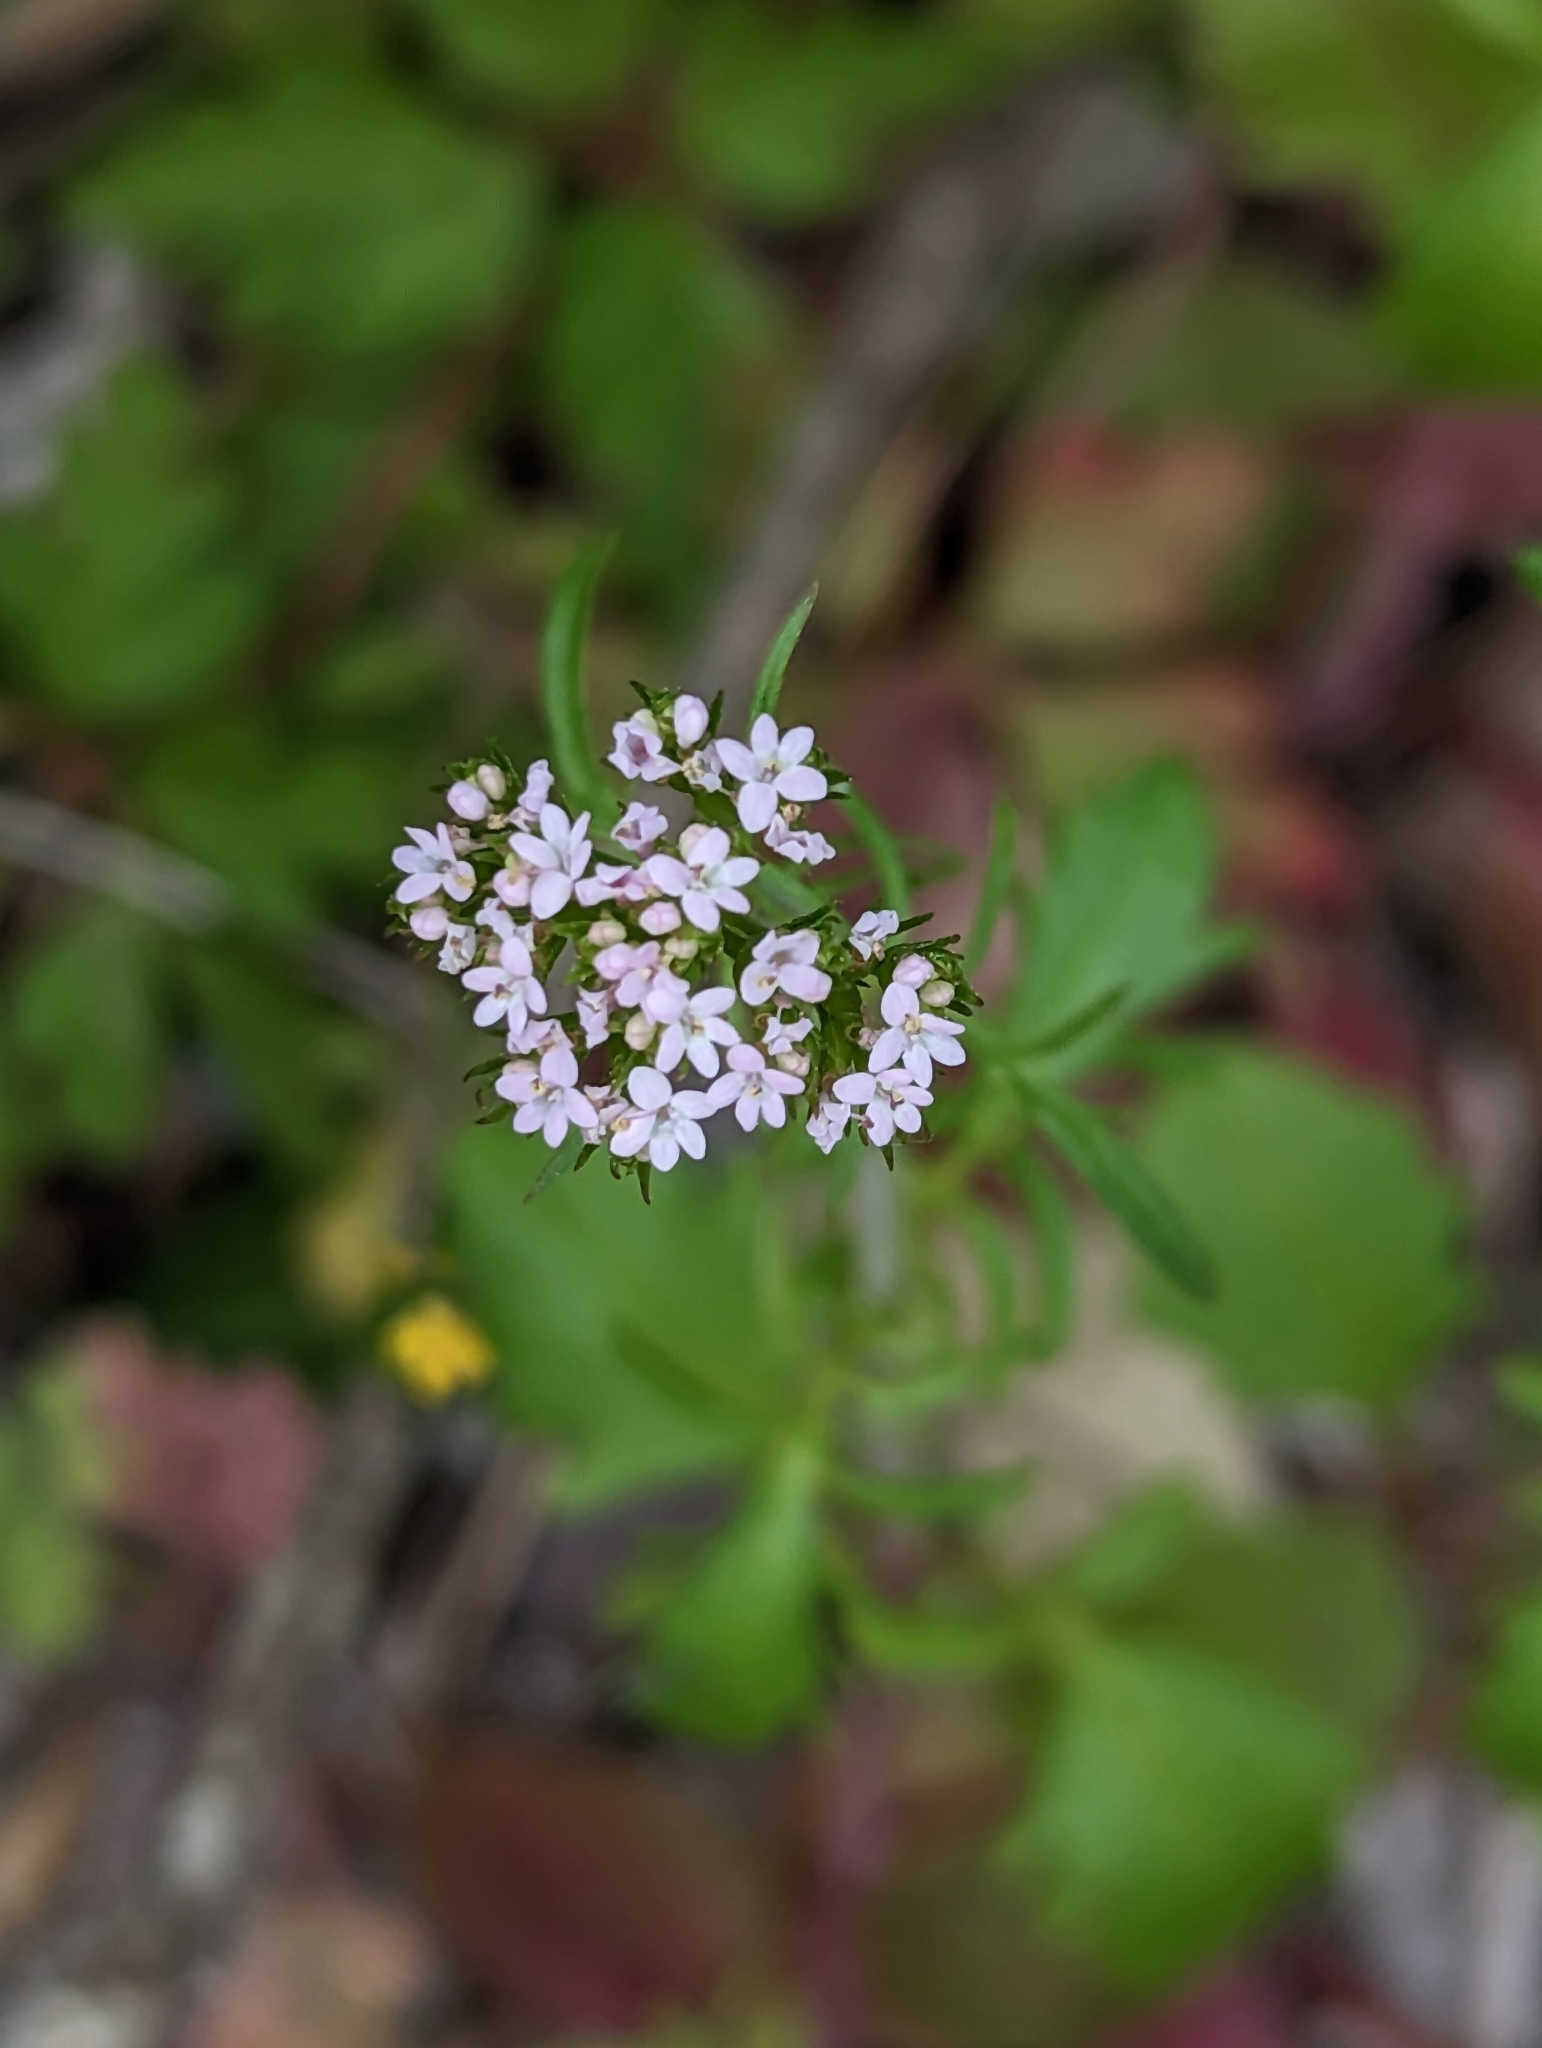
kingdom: Plantae
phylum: Tracheophyta
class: Magnoliopsida
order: Dipsacales
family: Caprifoliaceae
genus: Centranthus
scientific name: Centranthus calcitrapae
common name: Annual valerian
